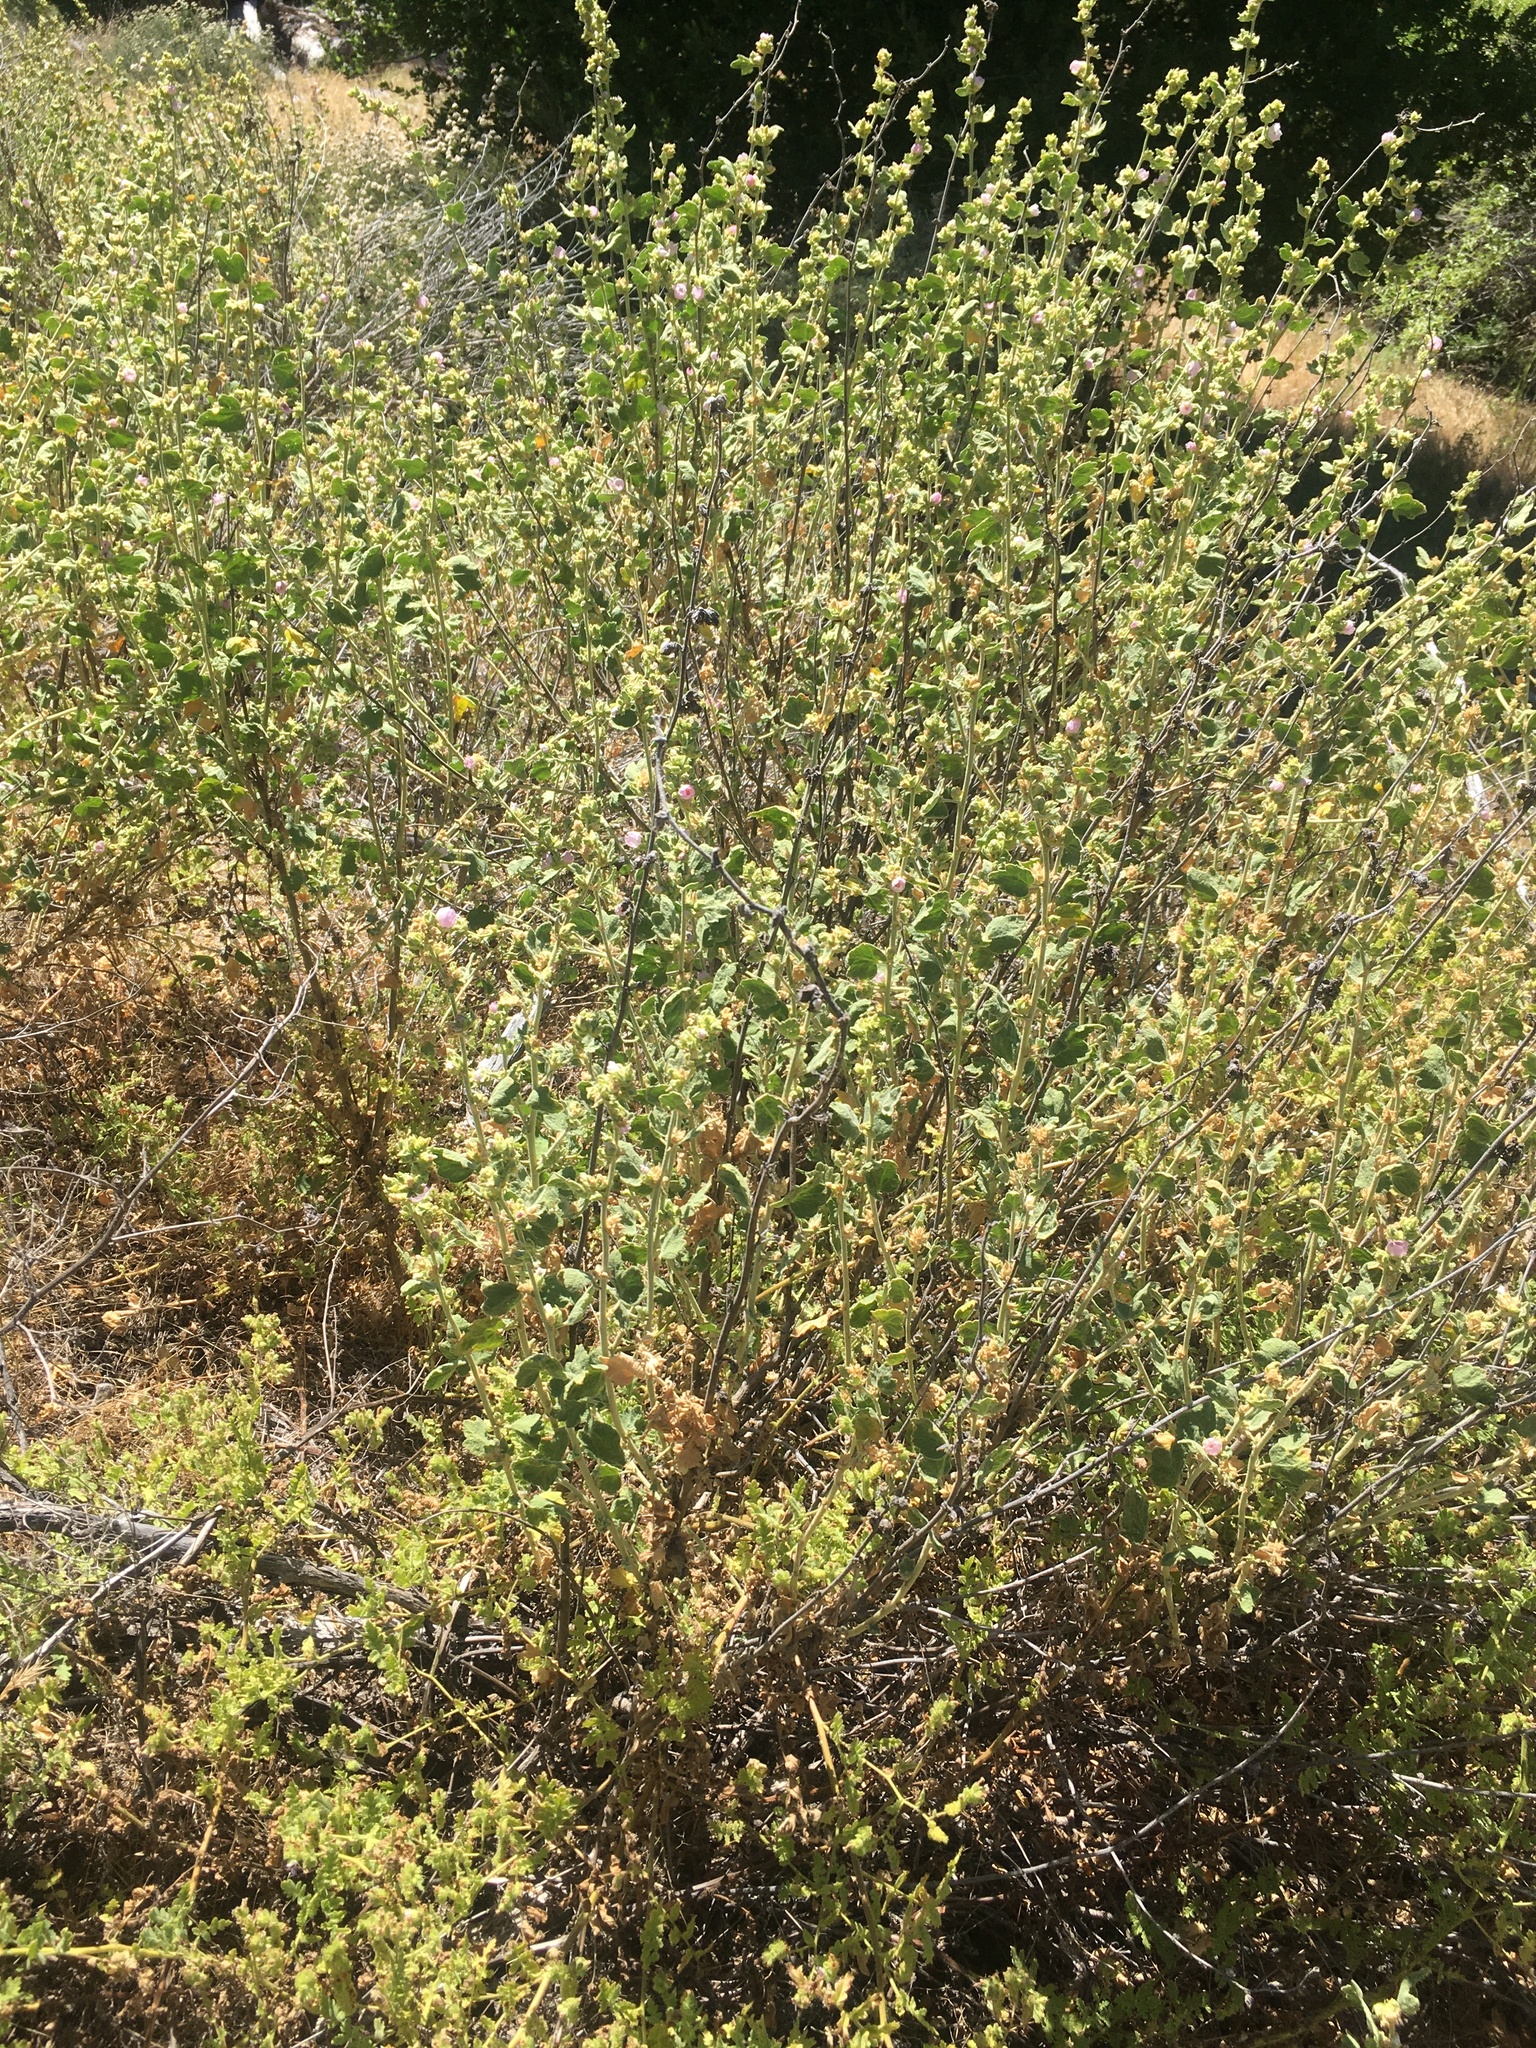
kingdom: Plantae
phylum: Tracheophyta
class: Magnoliopsida
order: Malvales
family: Malvaceae
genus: Malacothamnus
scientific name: Malacothamnus aboriginum
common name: Indian valley bush-mallow
